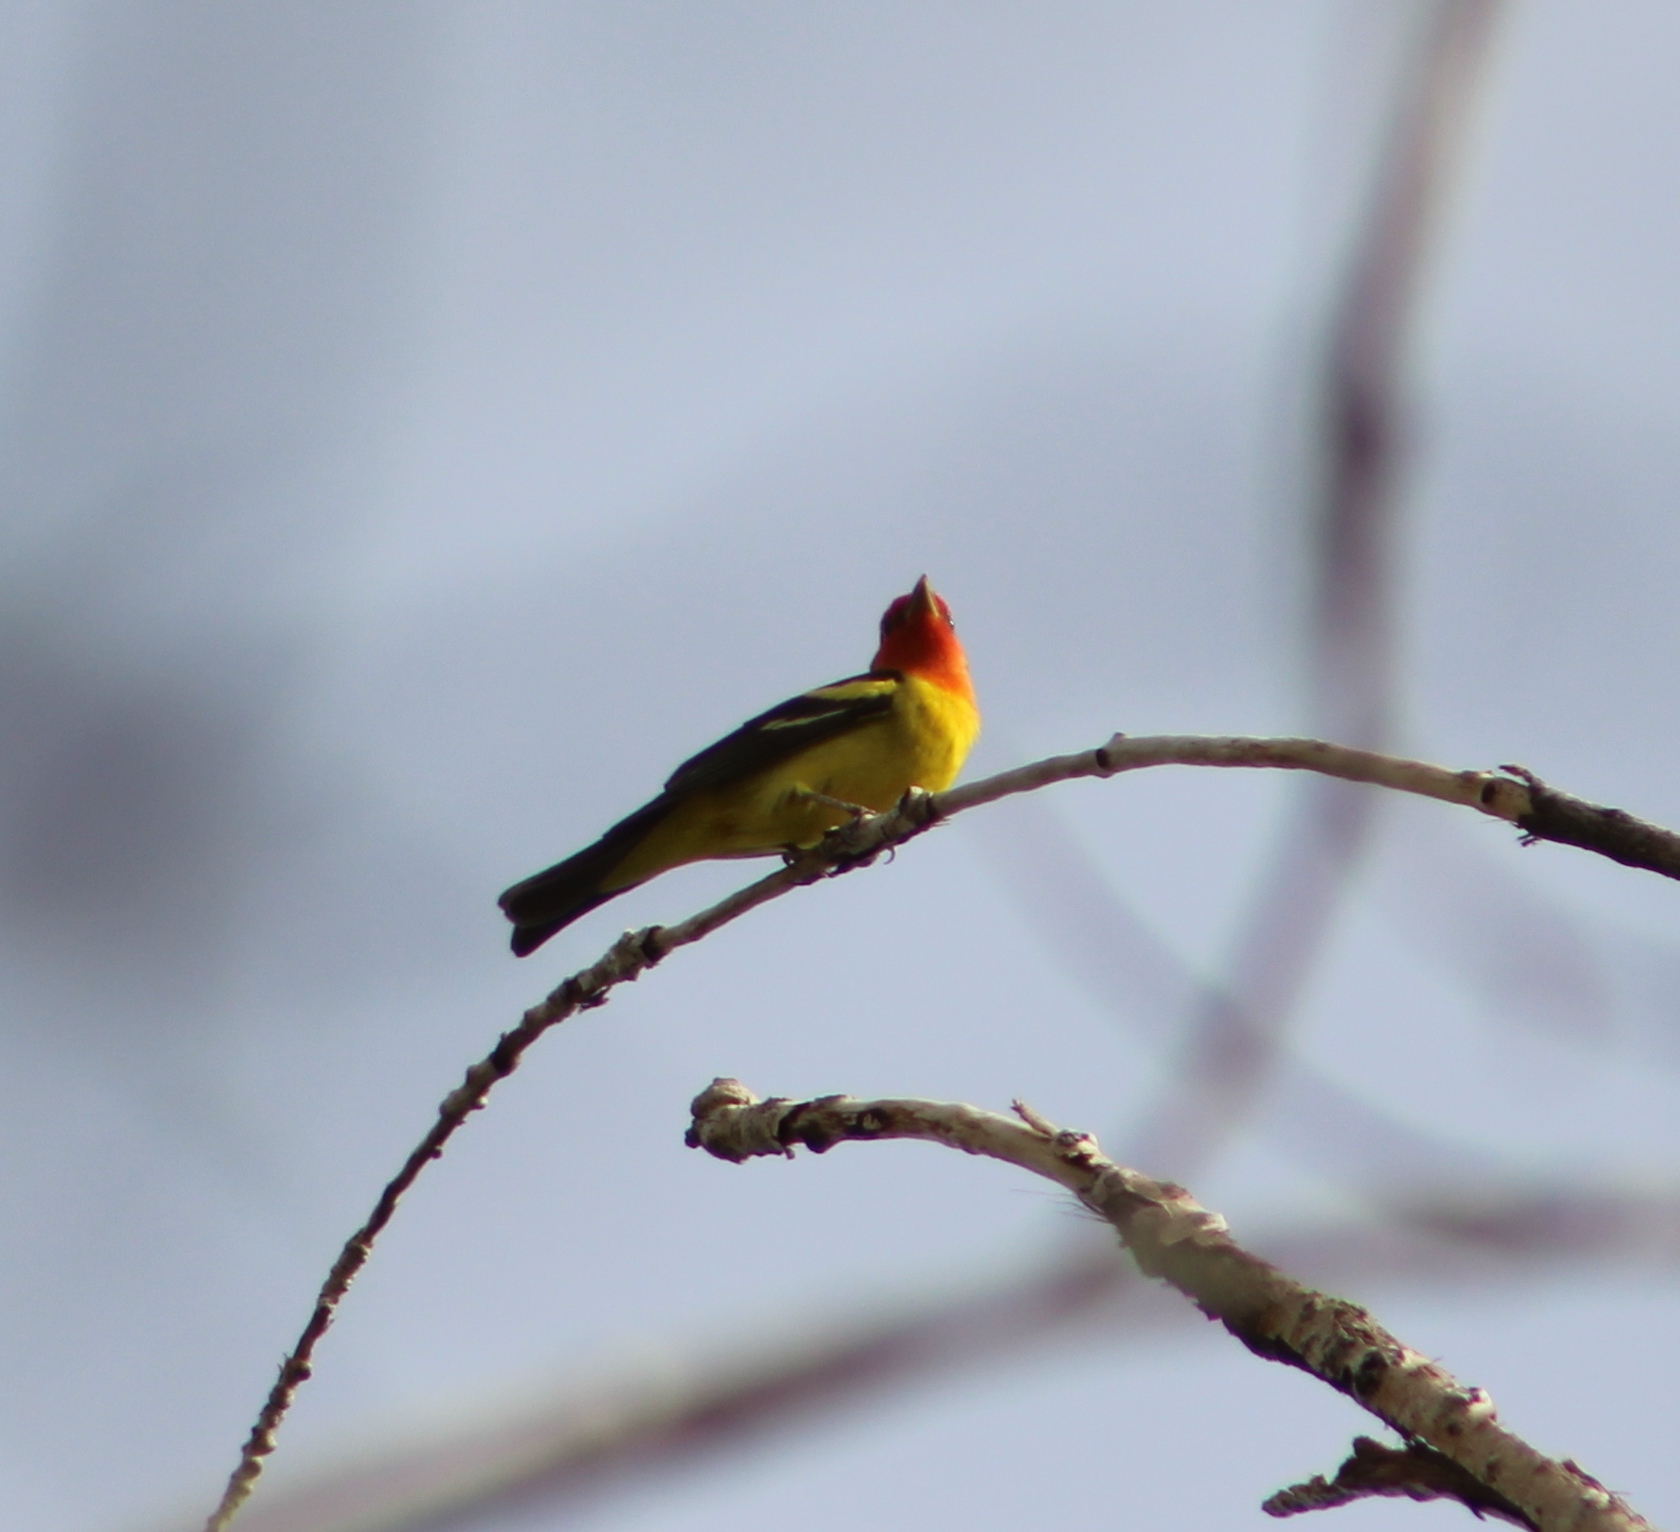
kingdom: Animalia
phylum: Chordata
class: Aves
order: Passeriformes
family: Cardinalidae
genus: Piranga
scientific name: Piranga ludoviciana
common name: Western tanager
